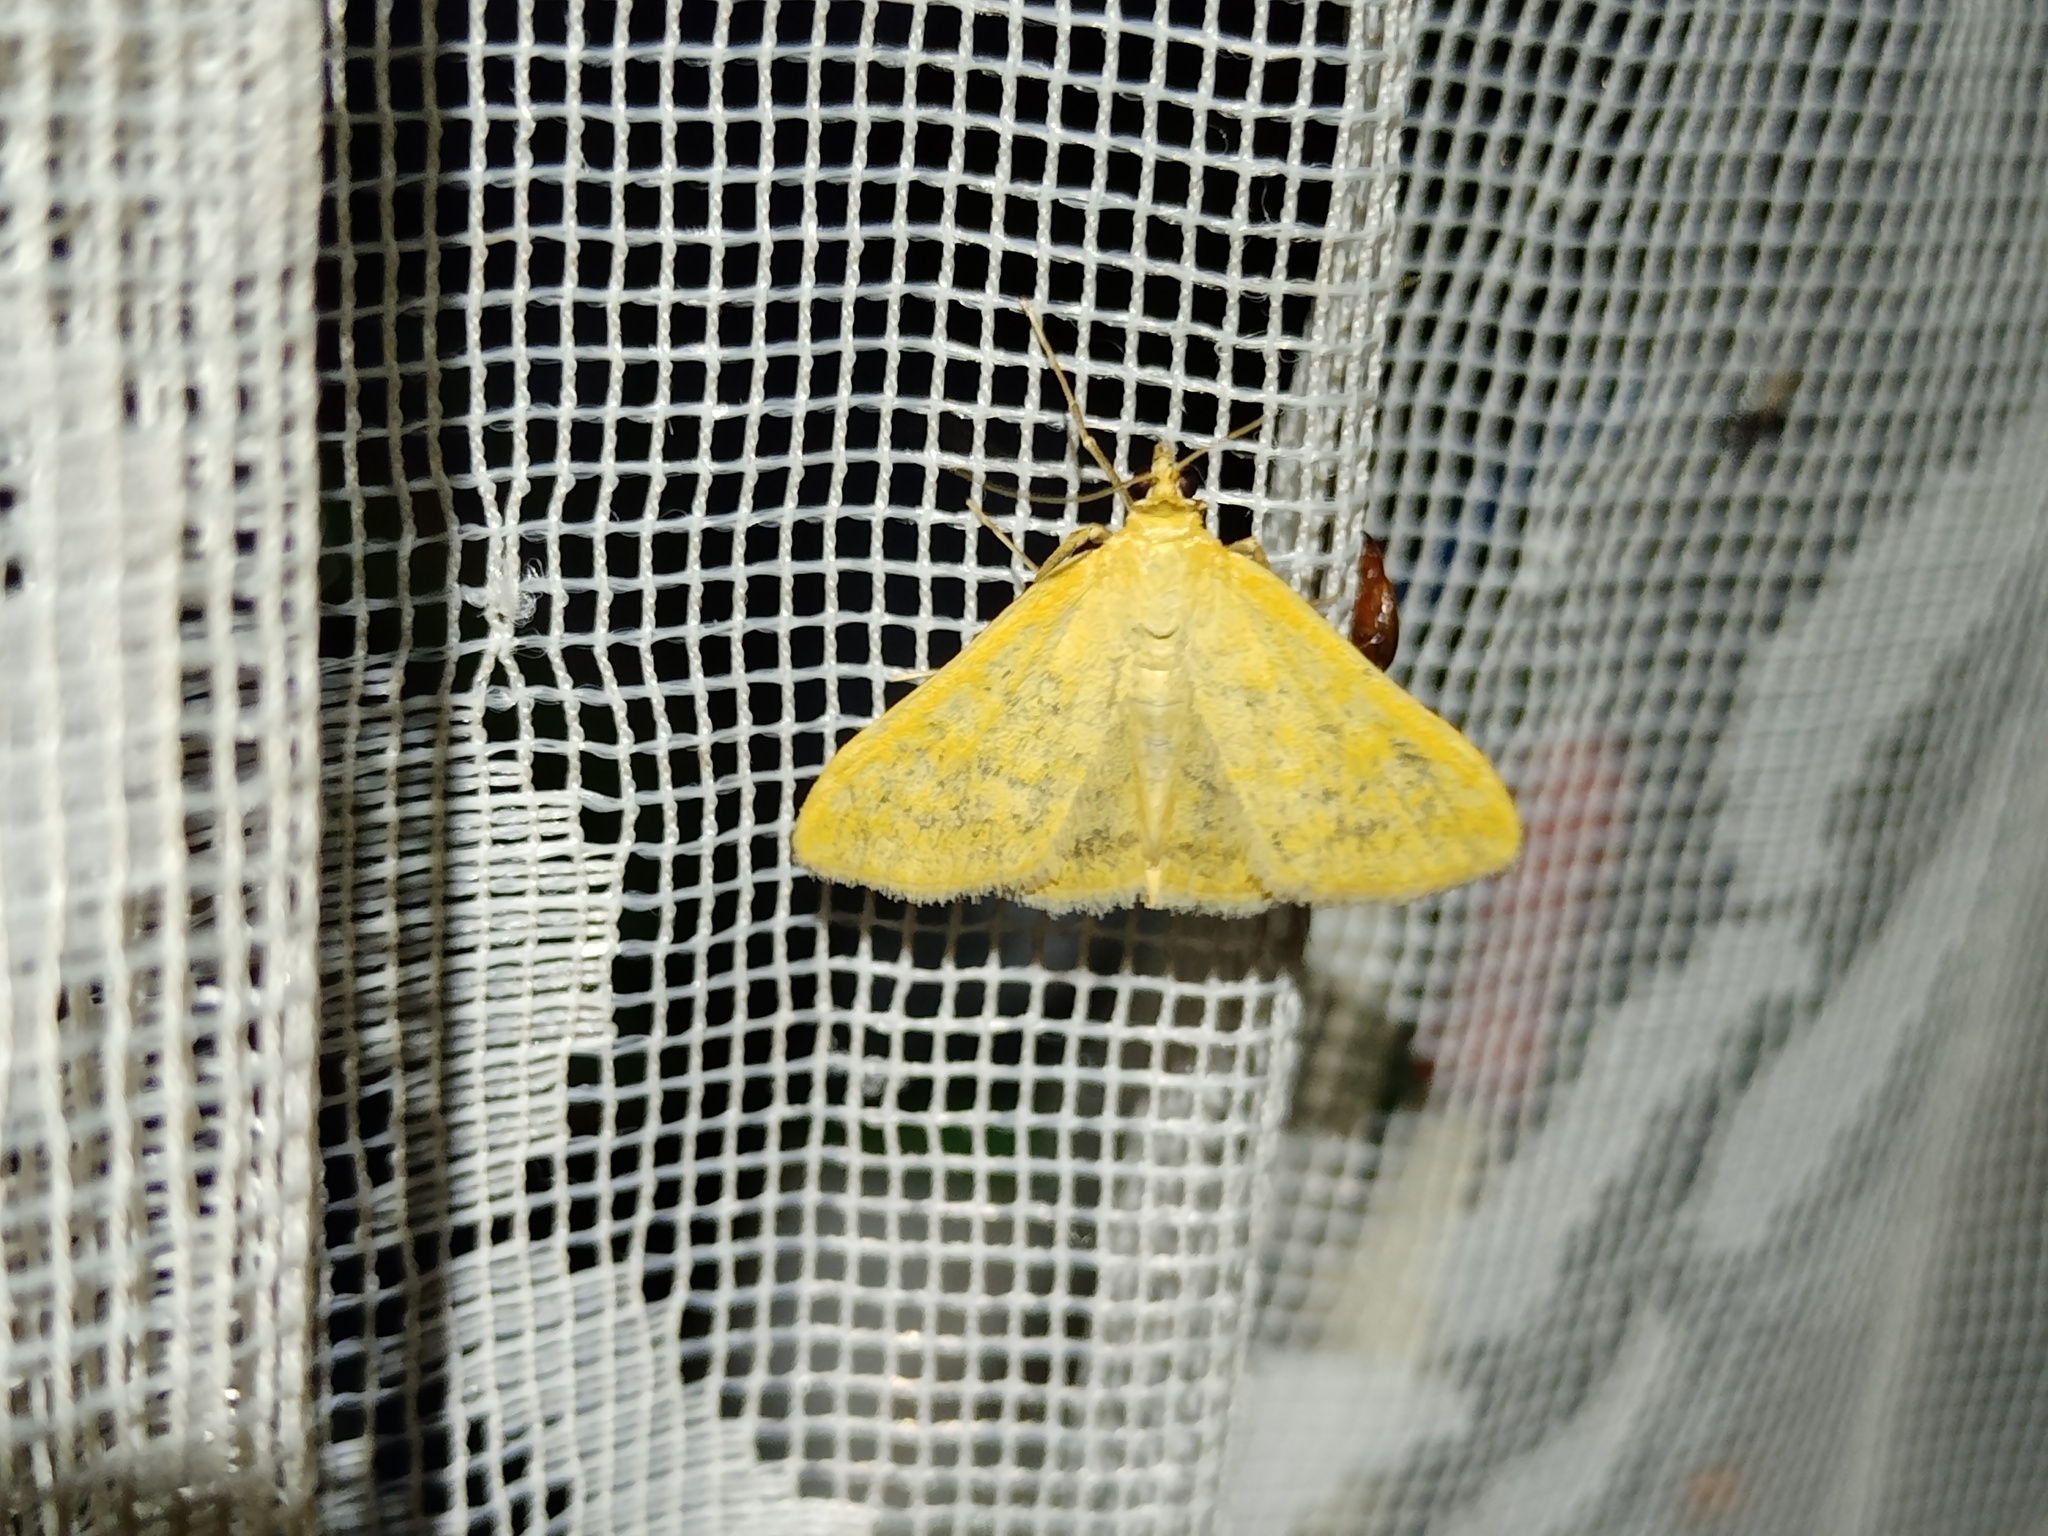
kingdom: Animalia
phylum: Arthropoda
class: Insecta
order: Lepidoptera
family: Crambidae
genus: Sitochroa
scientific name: Sitochroa verticalis
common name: Lesser pearl
